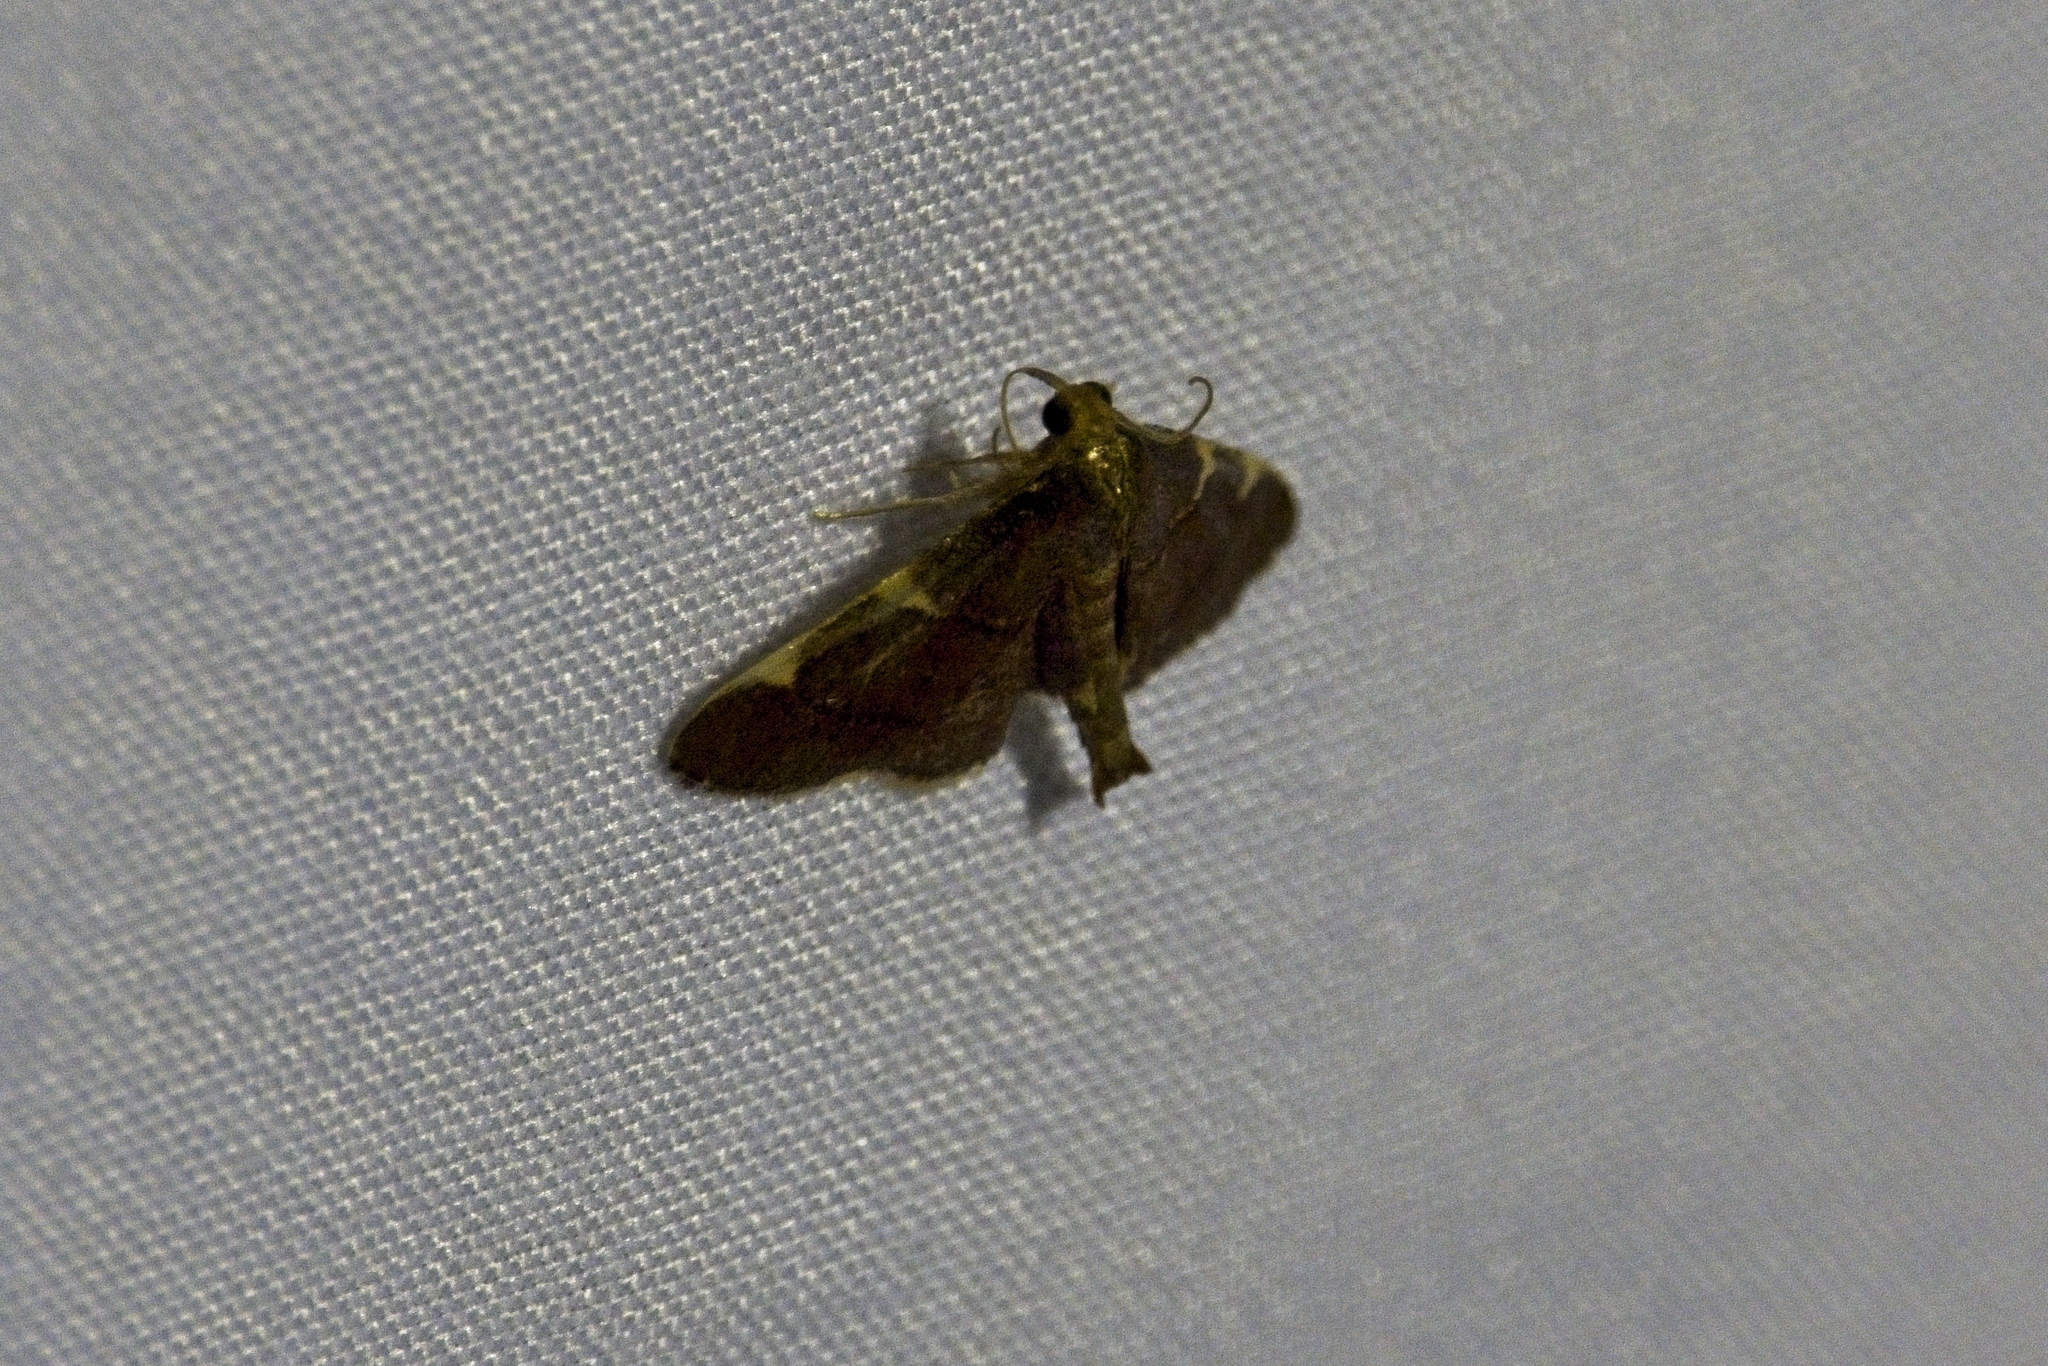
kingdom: Animalia
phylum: Arthropoda
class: Insecta
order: Lepidoptera
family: Pyralidae
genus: Hypsopygia
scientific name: Hypsopygia olinalis
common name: Yellow-fringed dolichomia moth
